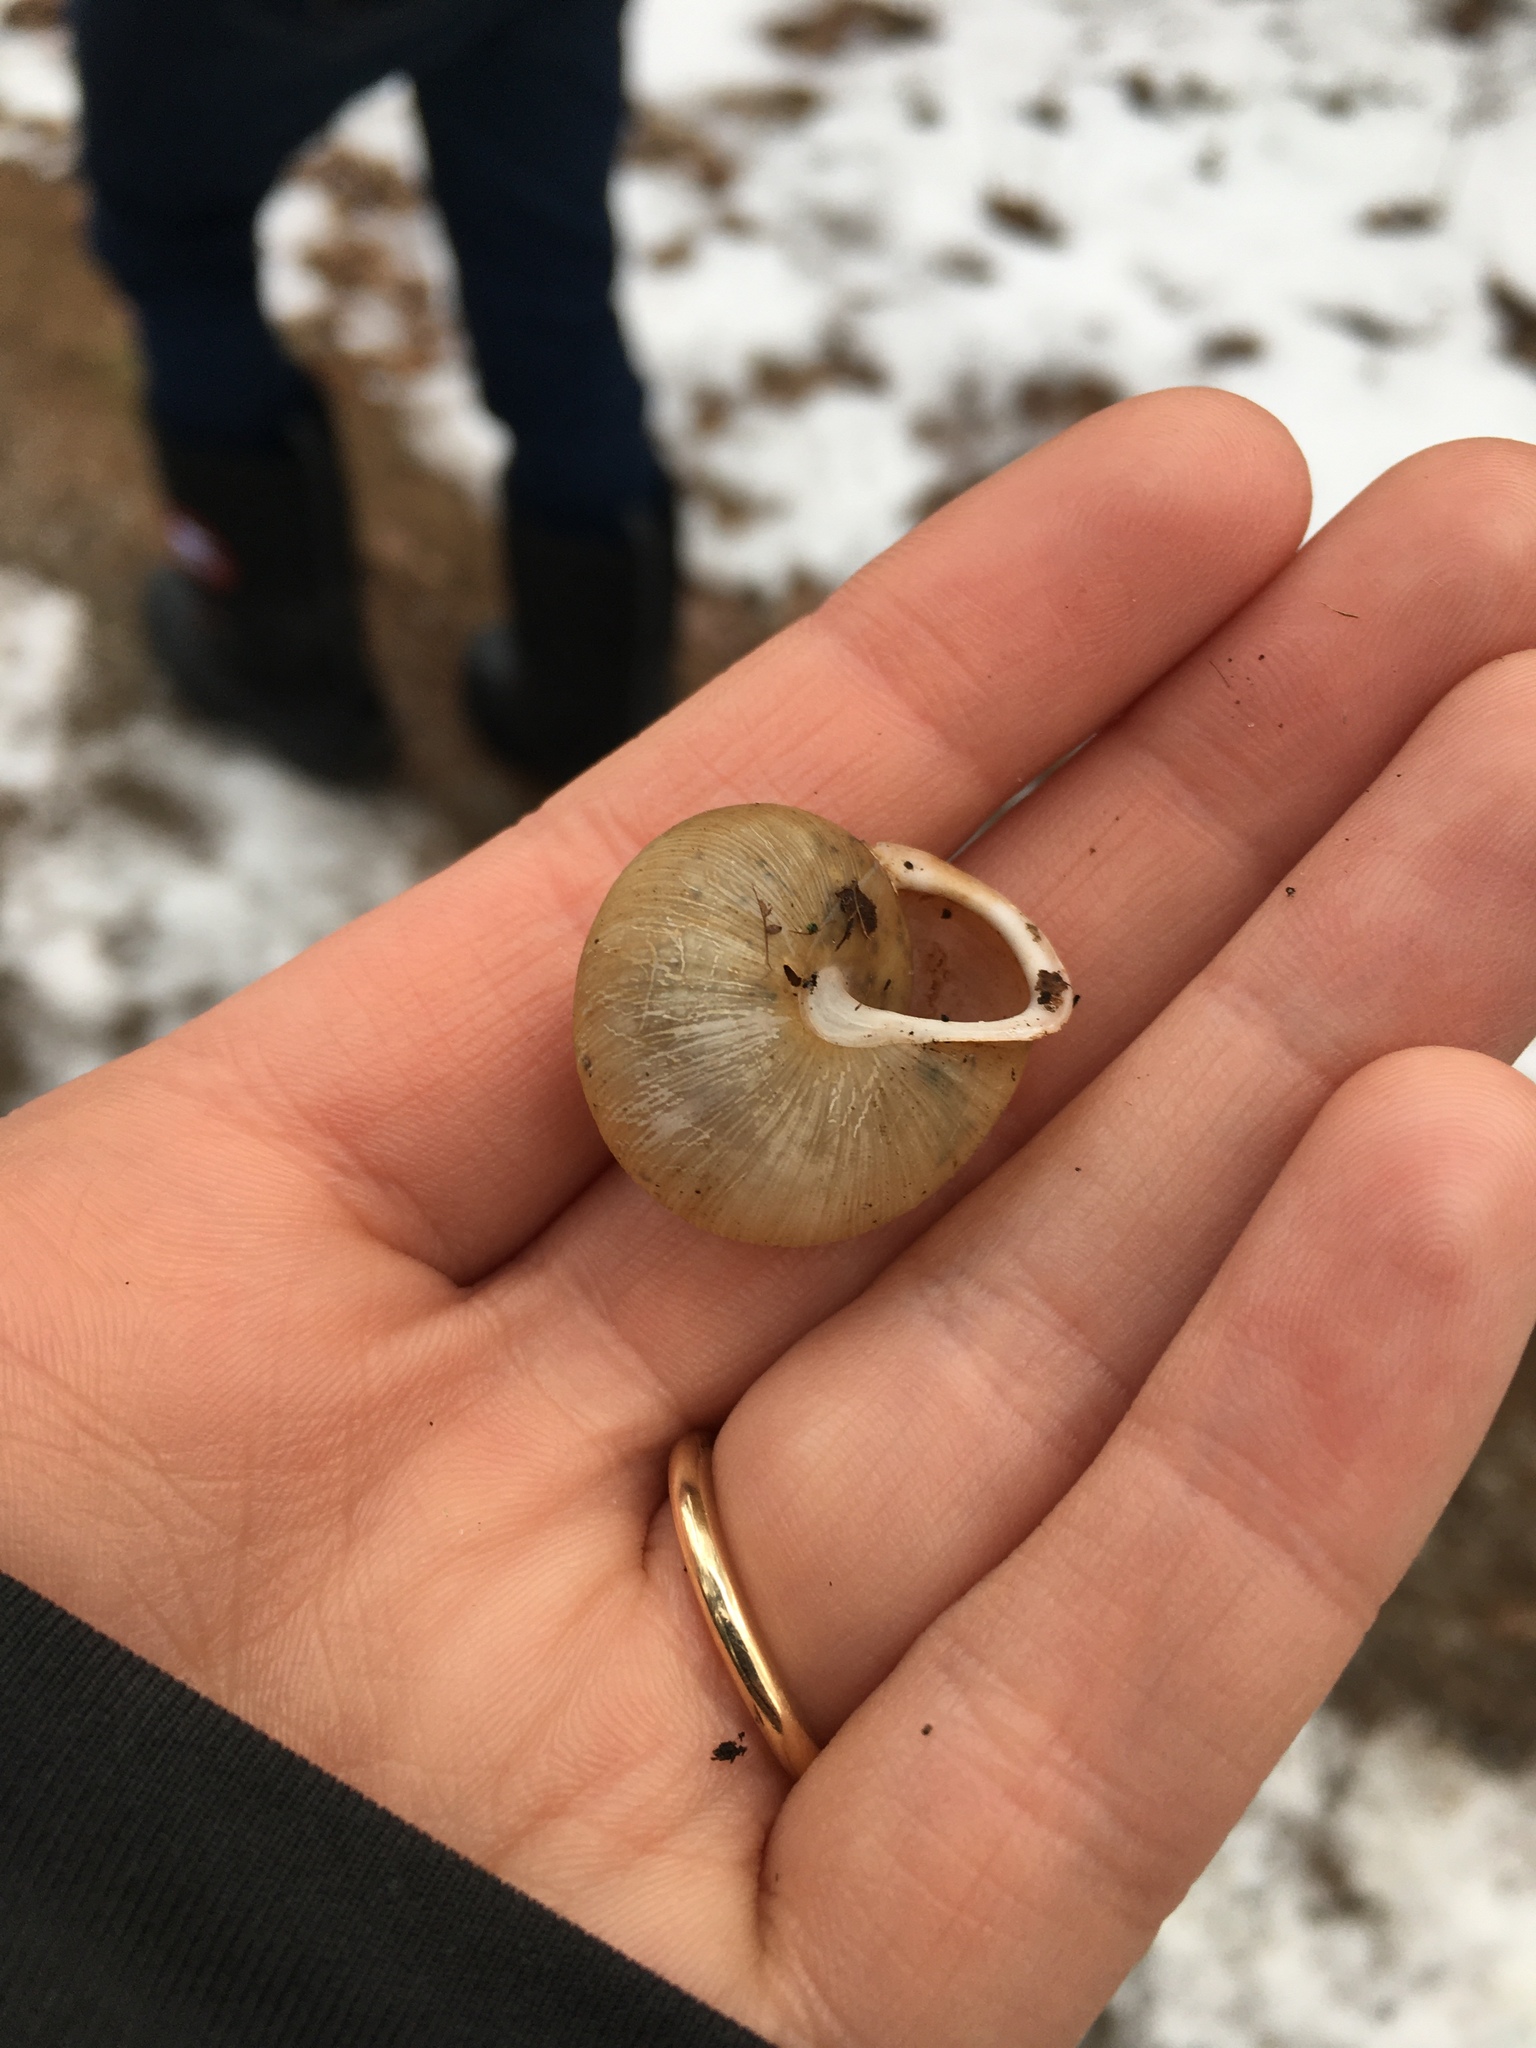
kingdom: Animalia
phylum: Mollusca
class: Gastropoda
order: Stylommatophora
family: Polygyridae
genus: Neohelix
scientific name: Neohelix albolabris
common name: Eastern whitelip
